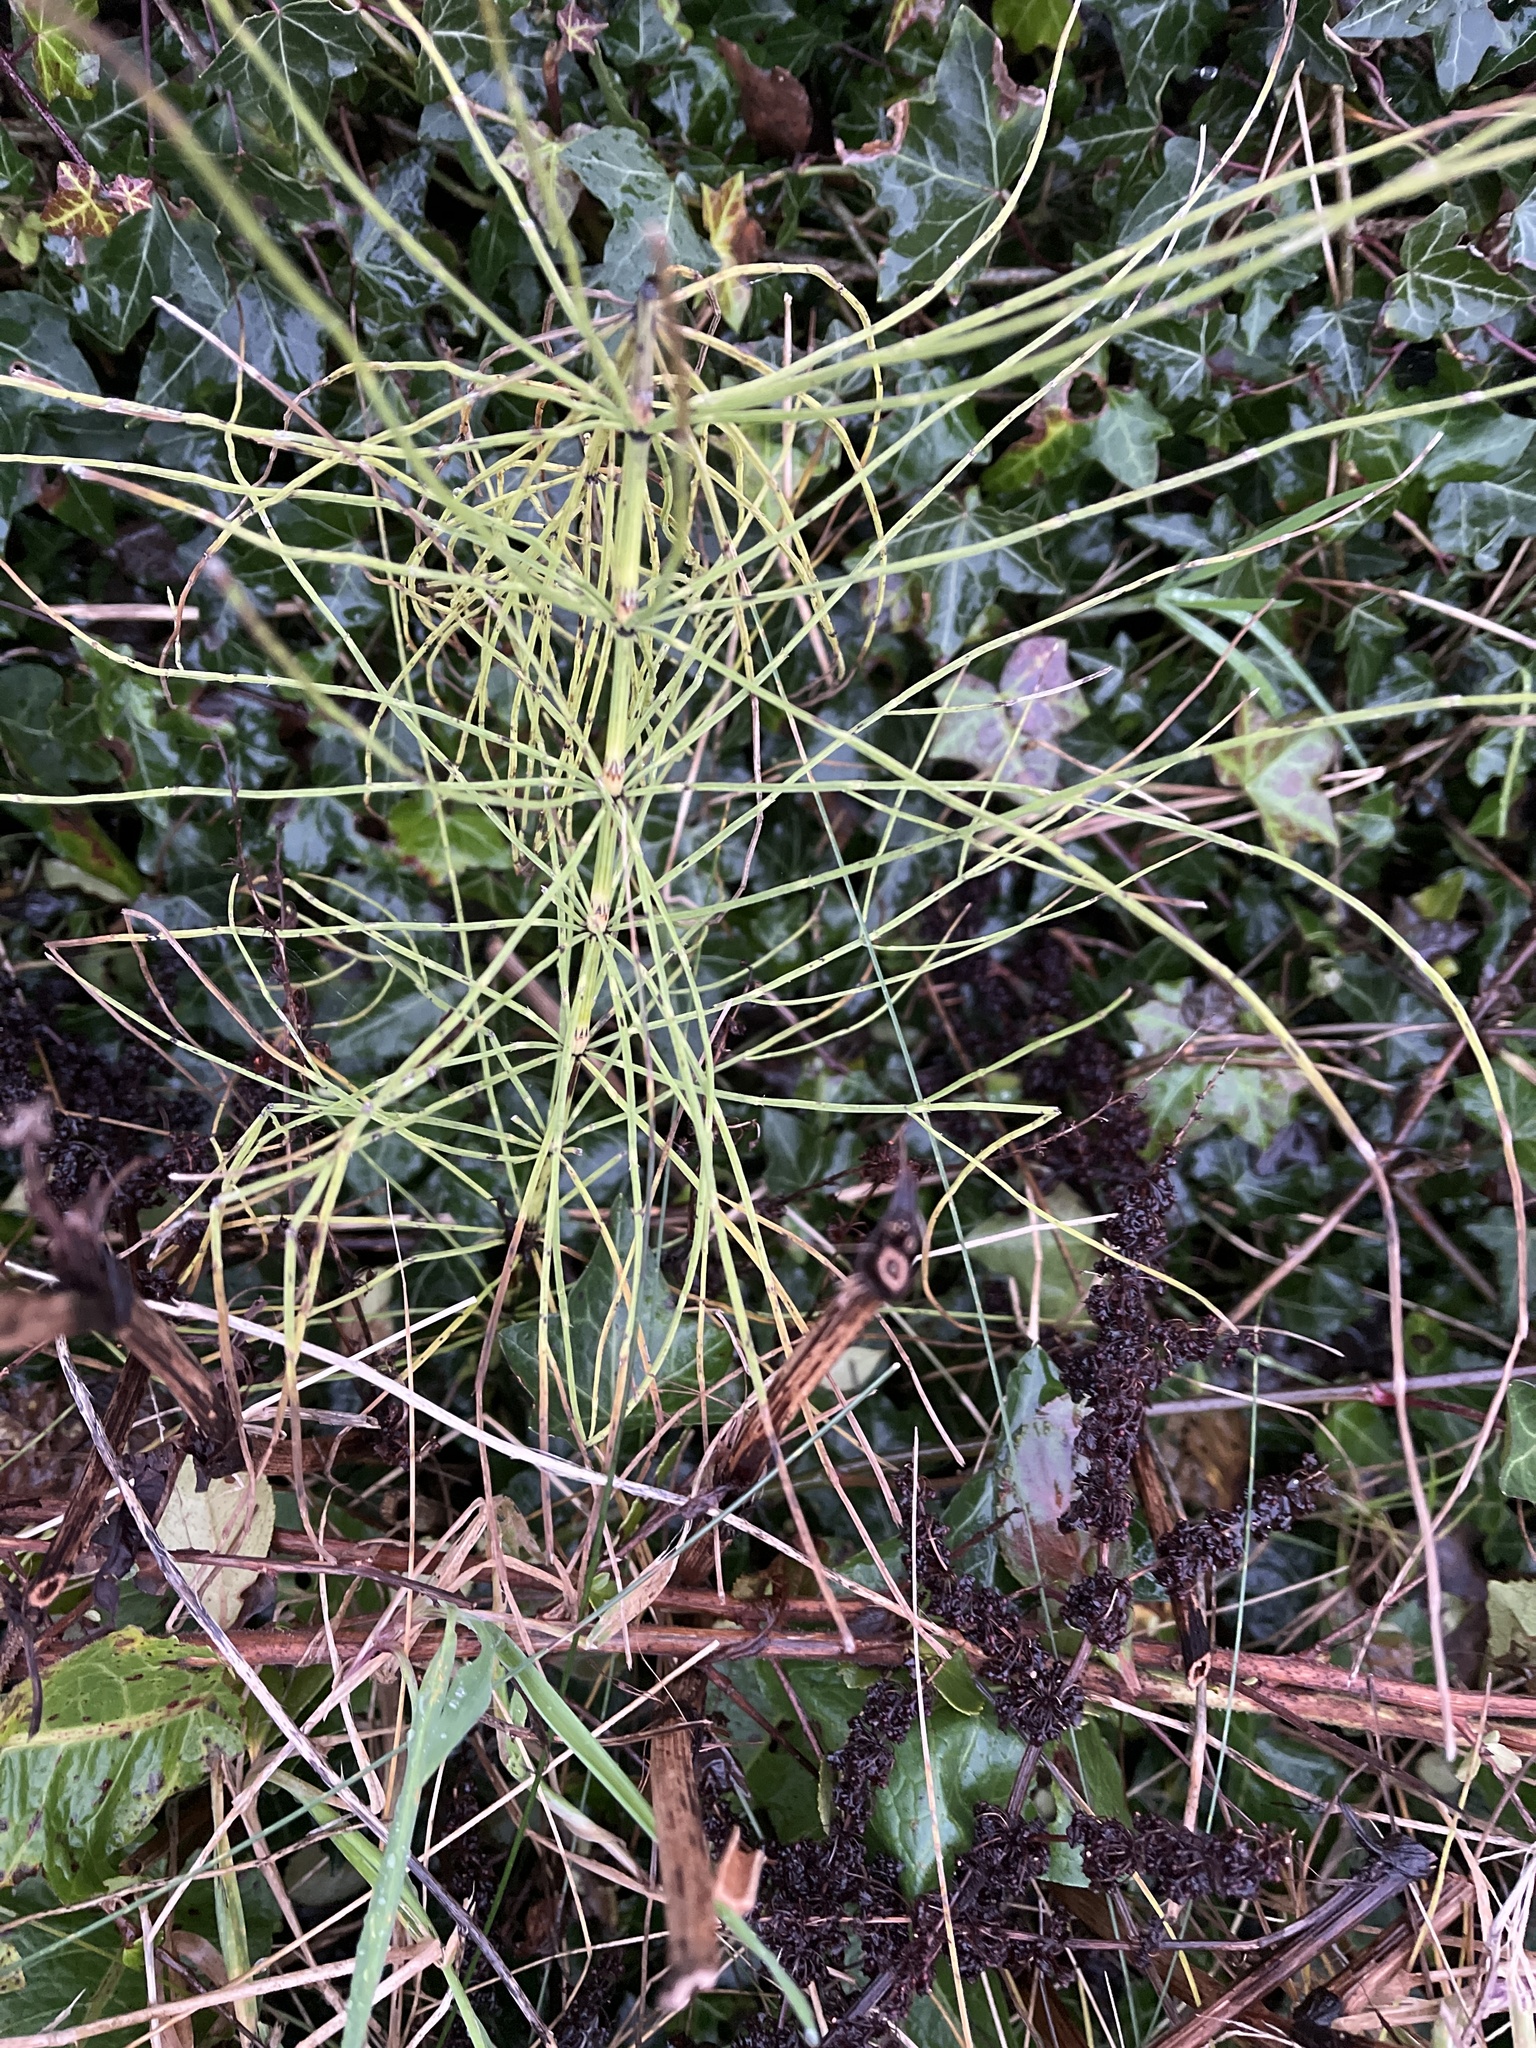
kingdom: Plantae
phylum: Tracheophyta
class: Polypodiopsida
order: Equisetales
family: Equisetaceae
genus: Equisetum
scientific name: Equisetum arvense
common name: Field horsetail
